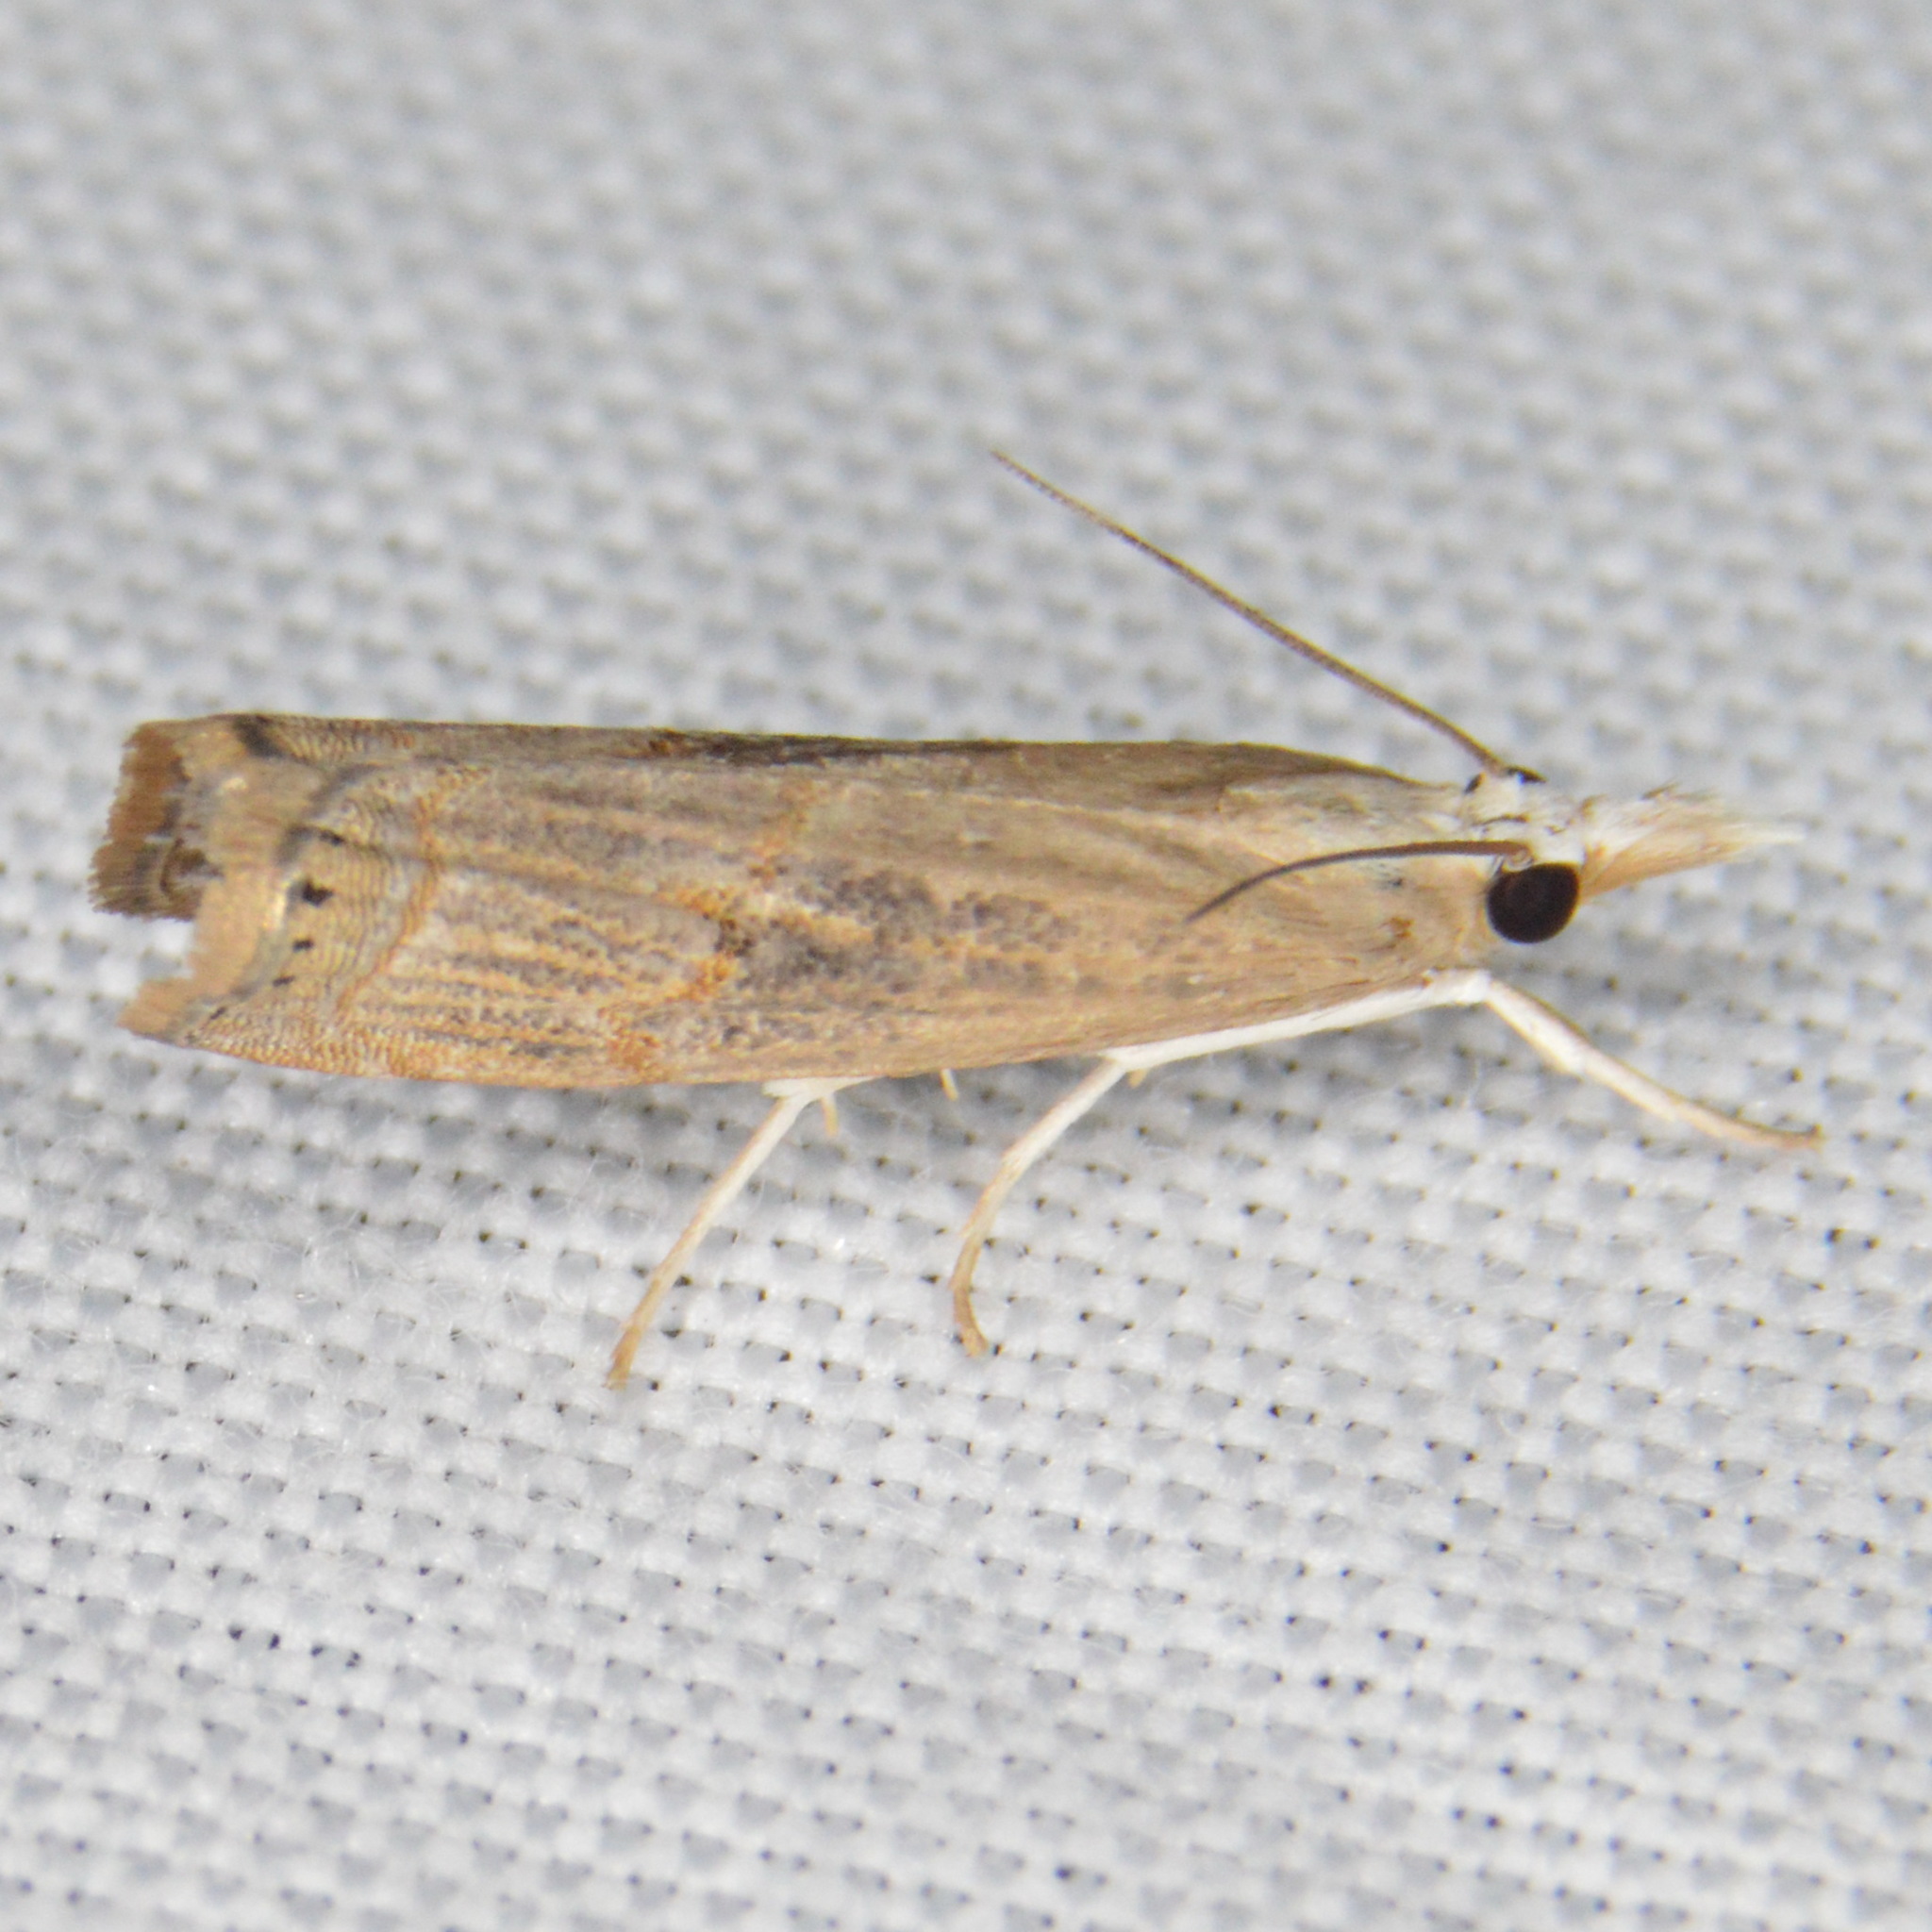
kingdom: Animalia
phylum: Arthropoda
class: Insecta
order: Lepidoptera
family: Crambidae
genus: Parapediasia
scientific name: Parapediasia teterellus
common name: Bluegrass webworm moth
